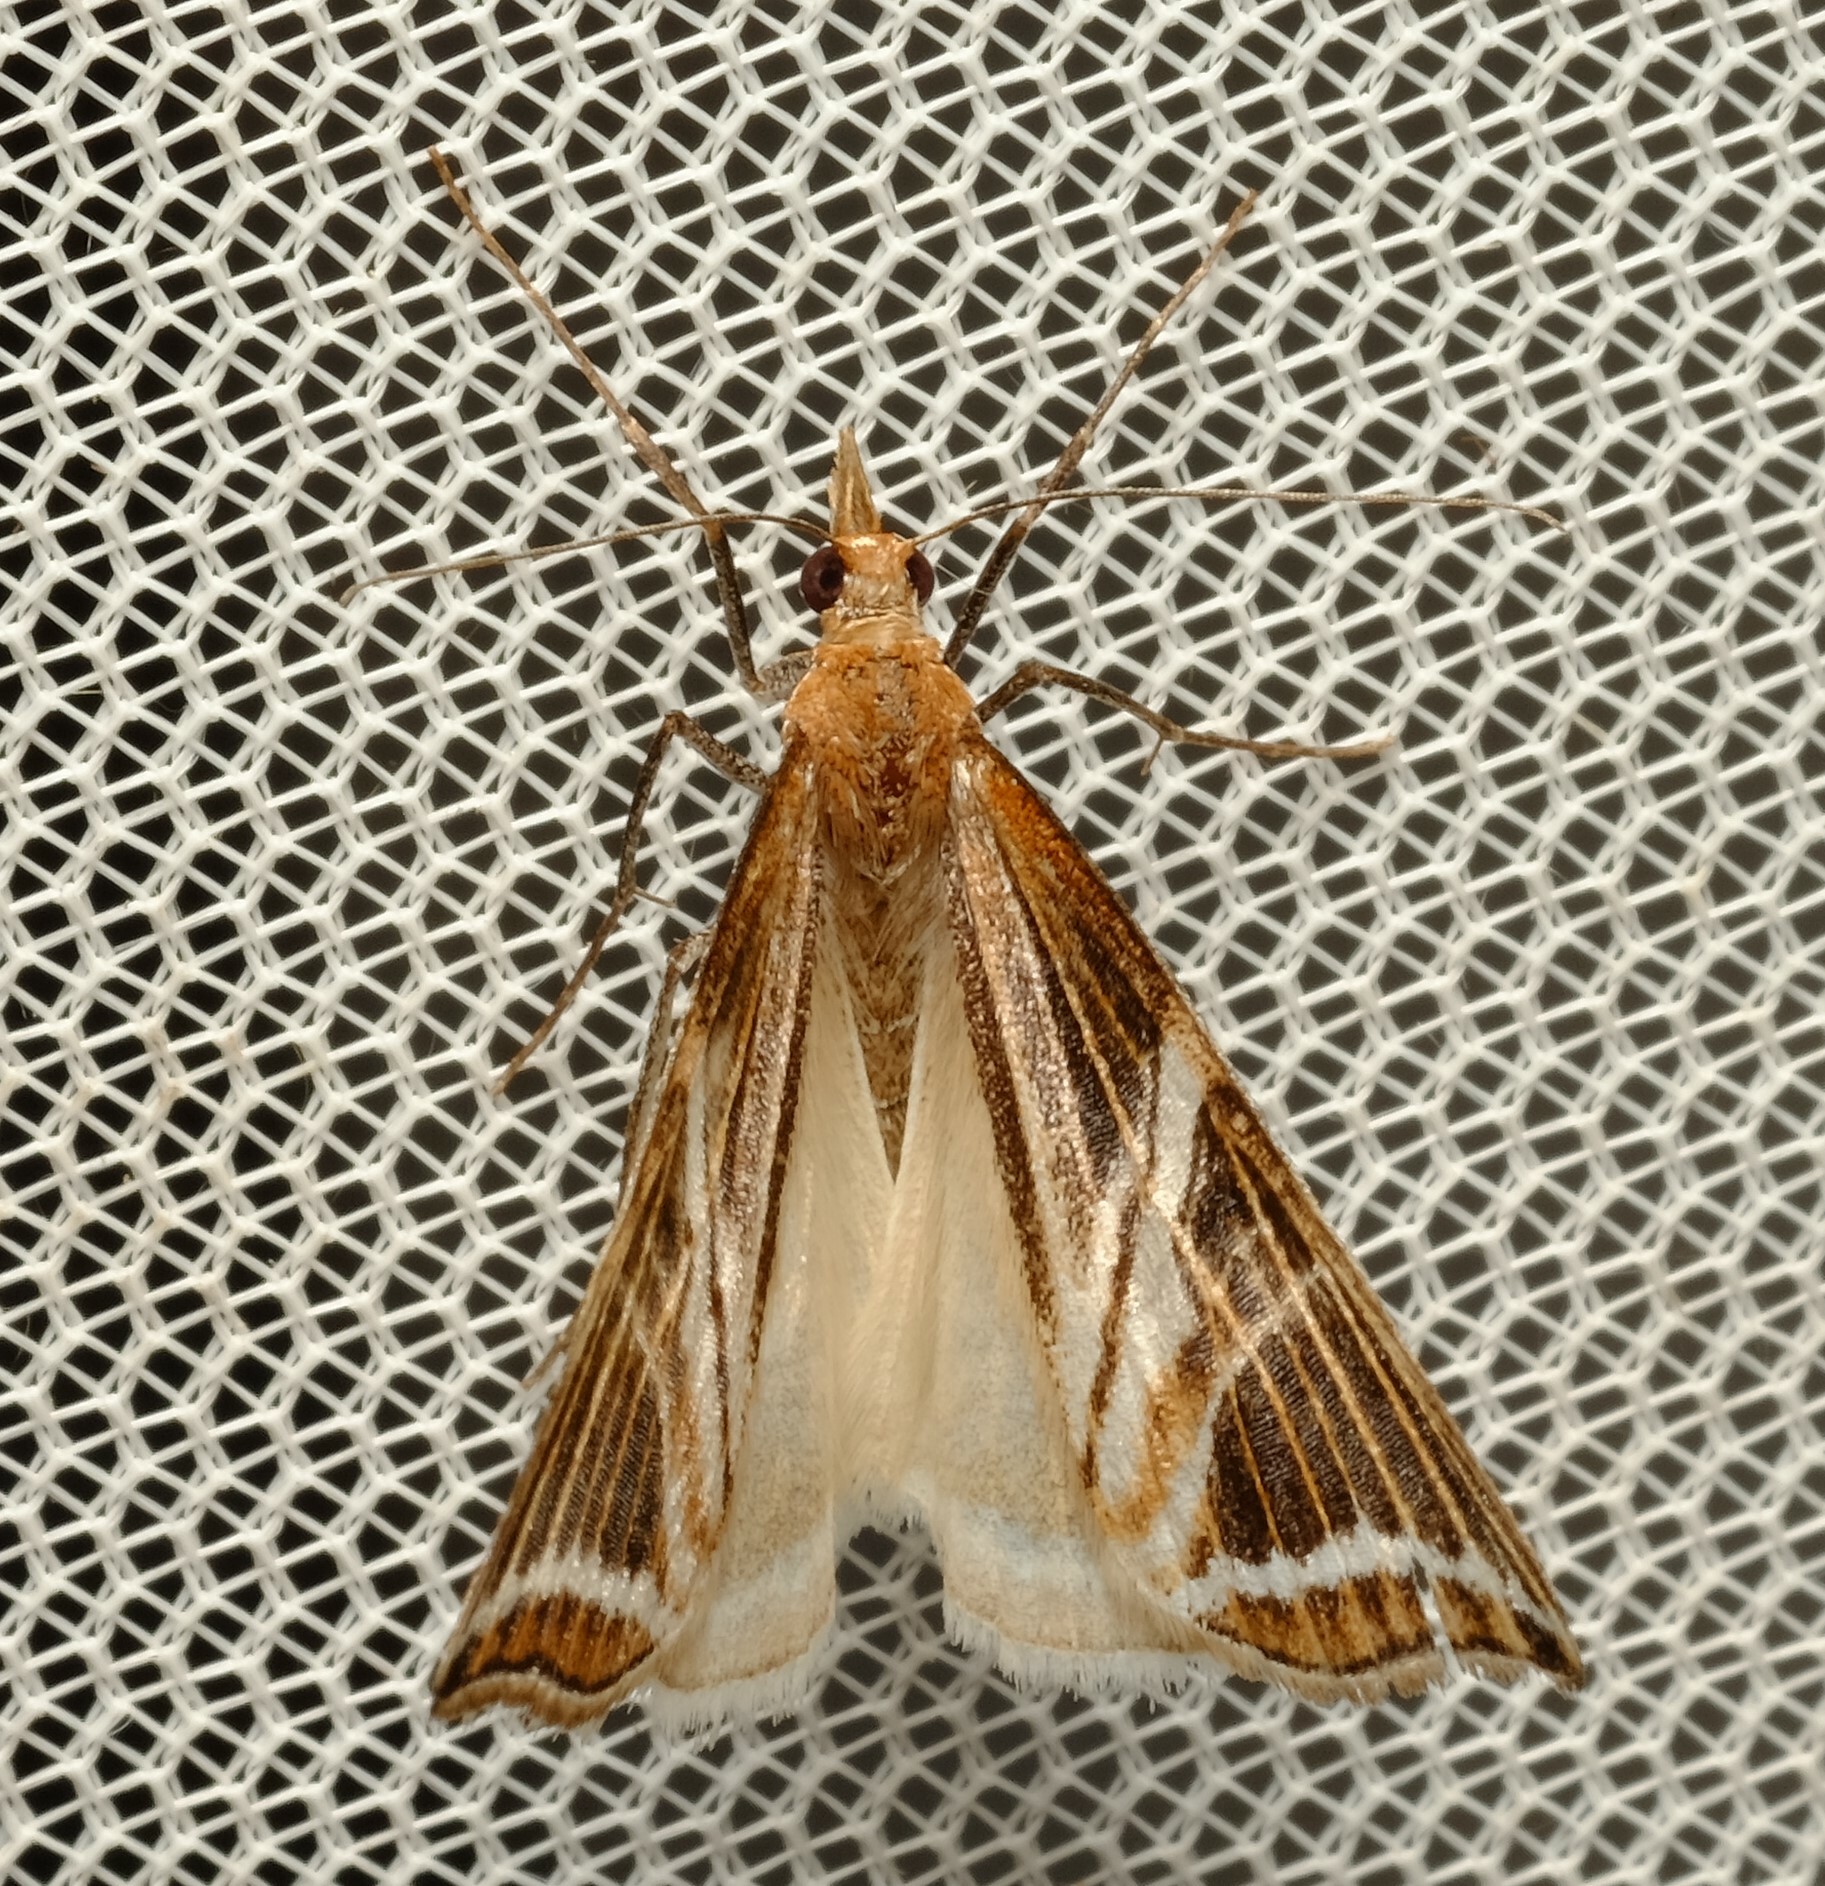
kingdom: Animalia
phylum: Arthropoda
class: Insecta
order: Lepidoptera
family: Geometridae
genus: Phrataria
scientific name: Phrataria transcissata
